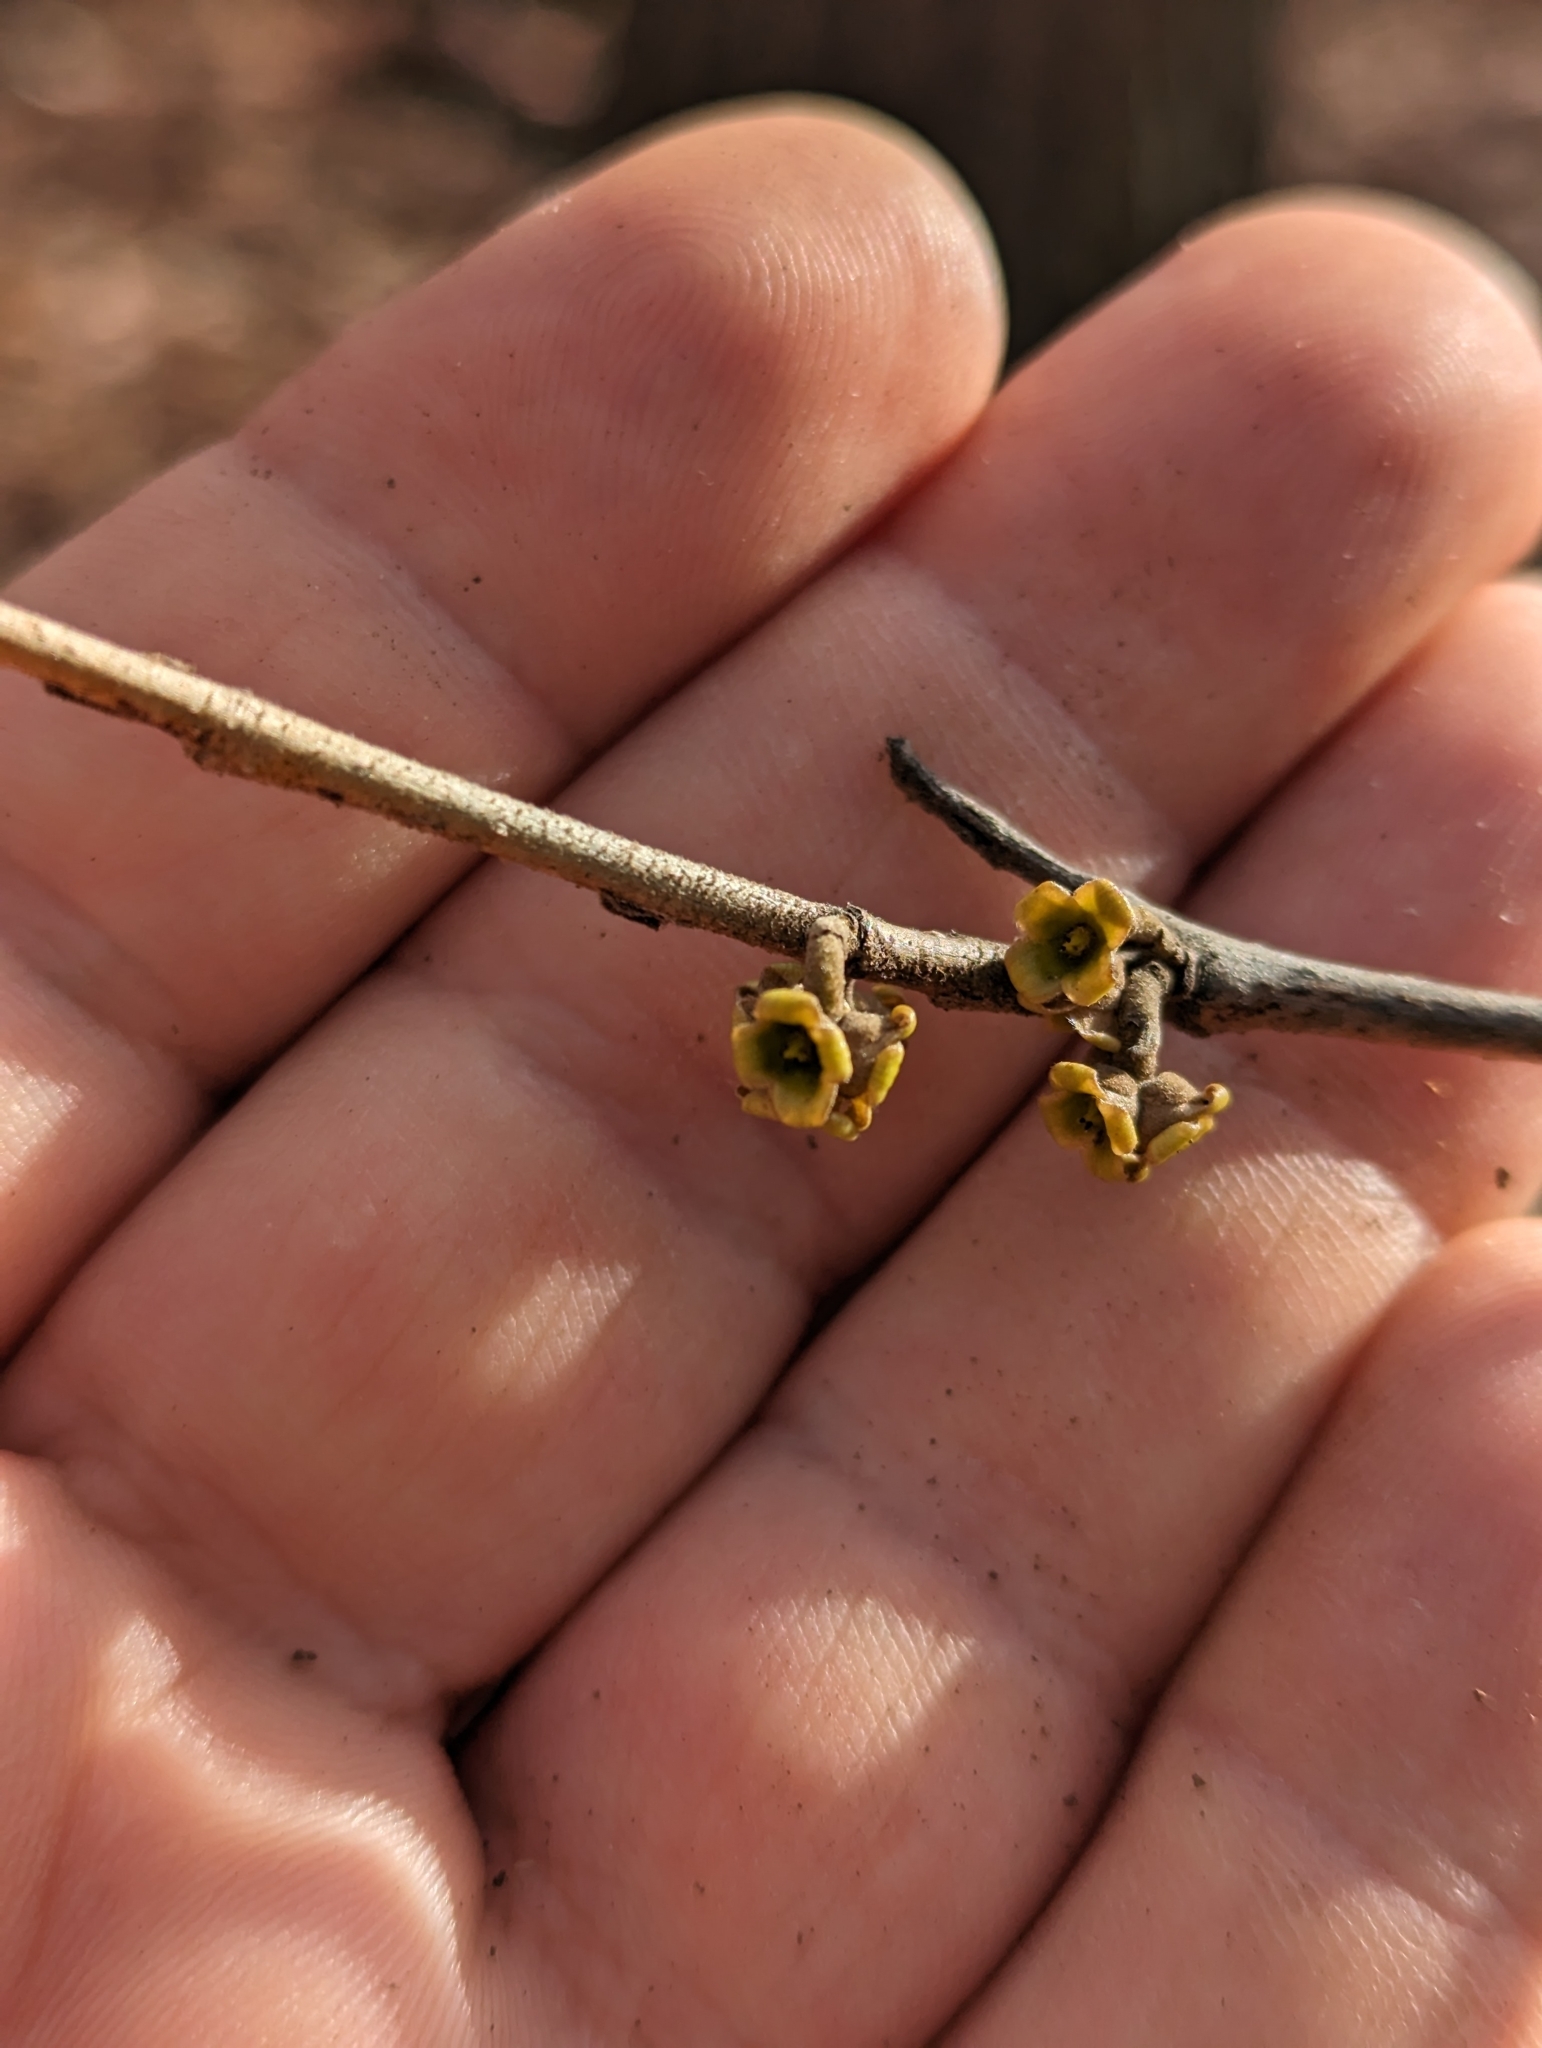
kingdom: Plantae
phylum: Tracheophyta
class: Magnoliopsida
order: Saxifragales
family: Hamamelidaceae
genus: Hamamelis
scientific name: Hamamelis virginiana
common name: Witch-hazel
